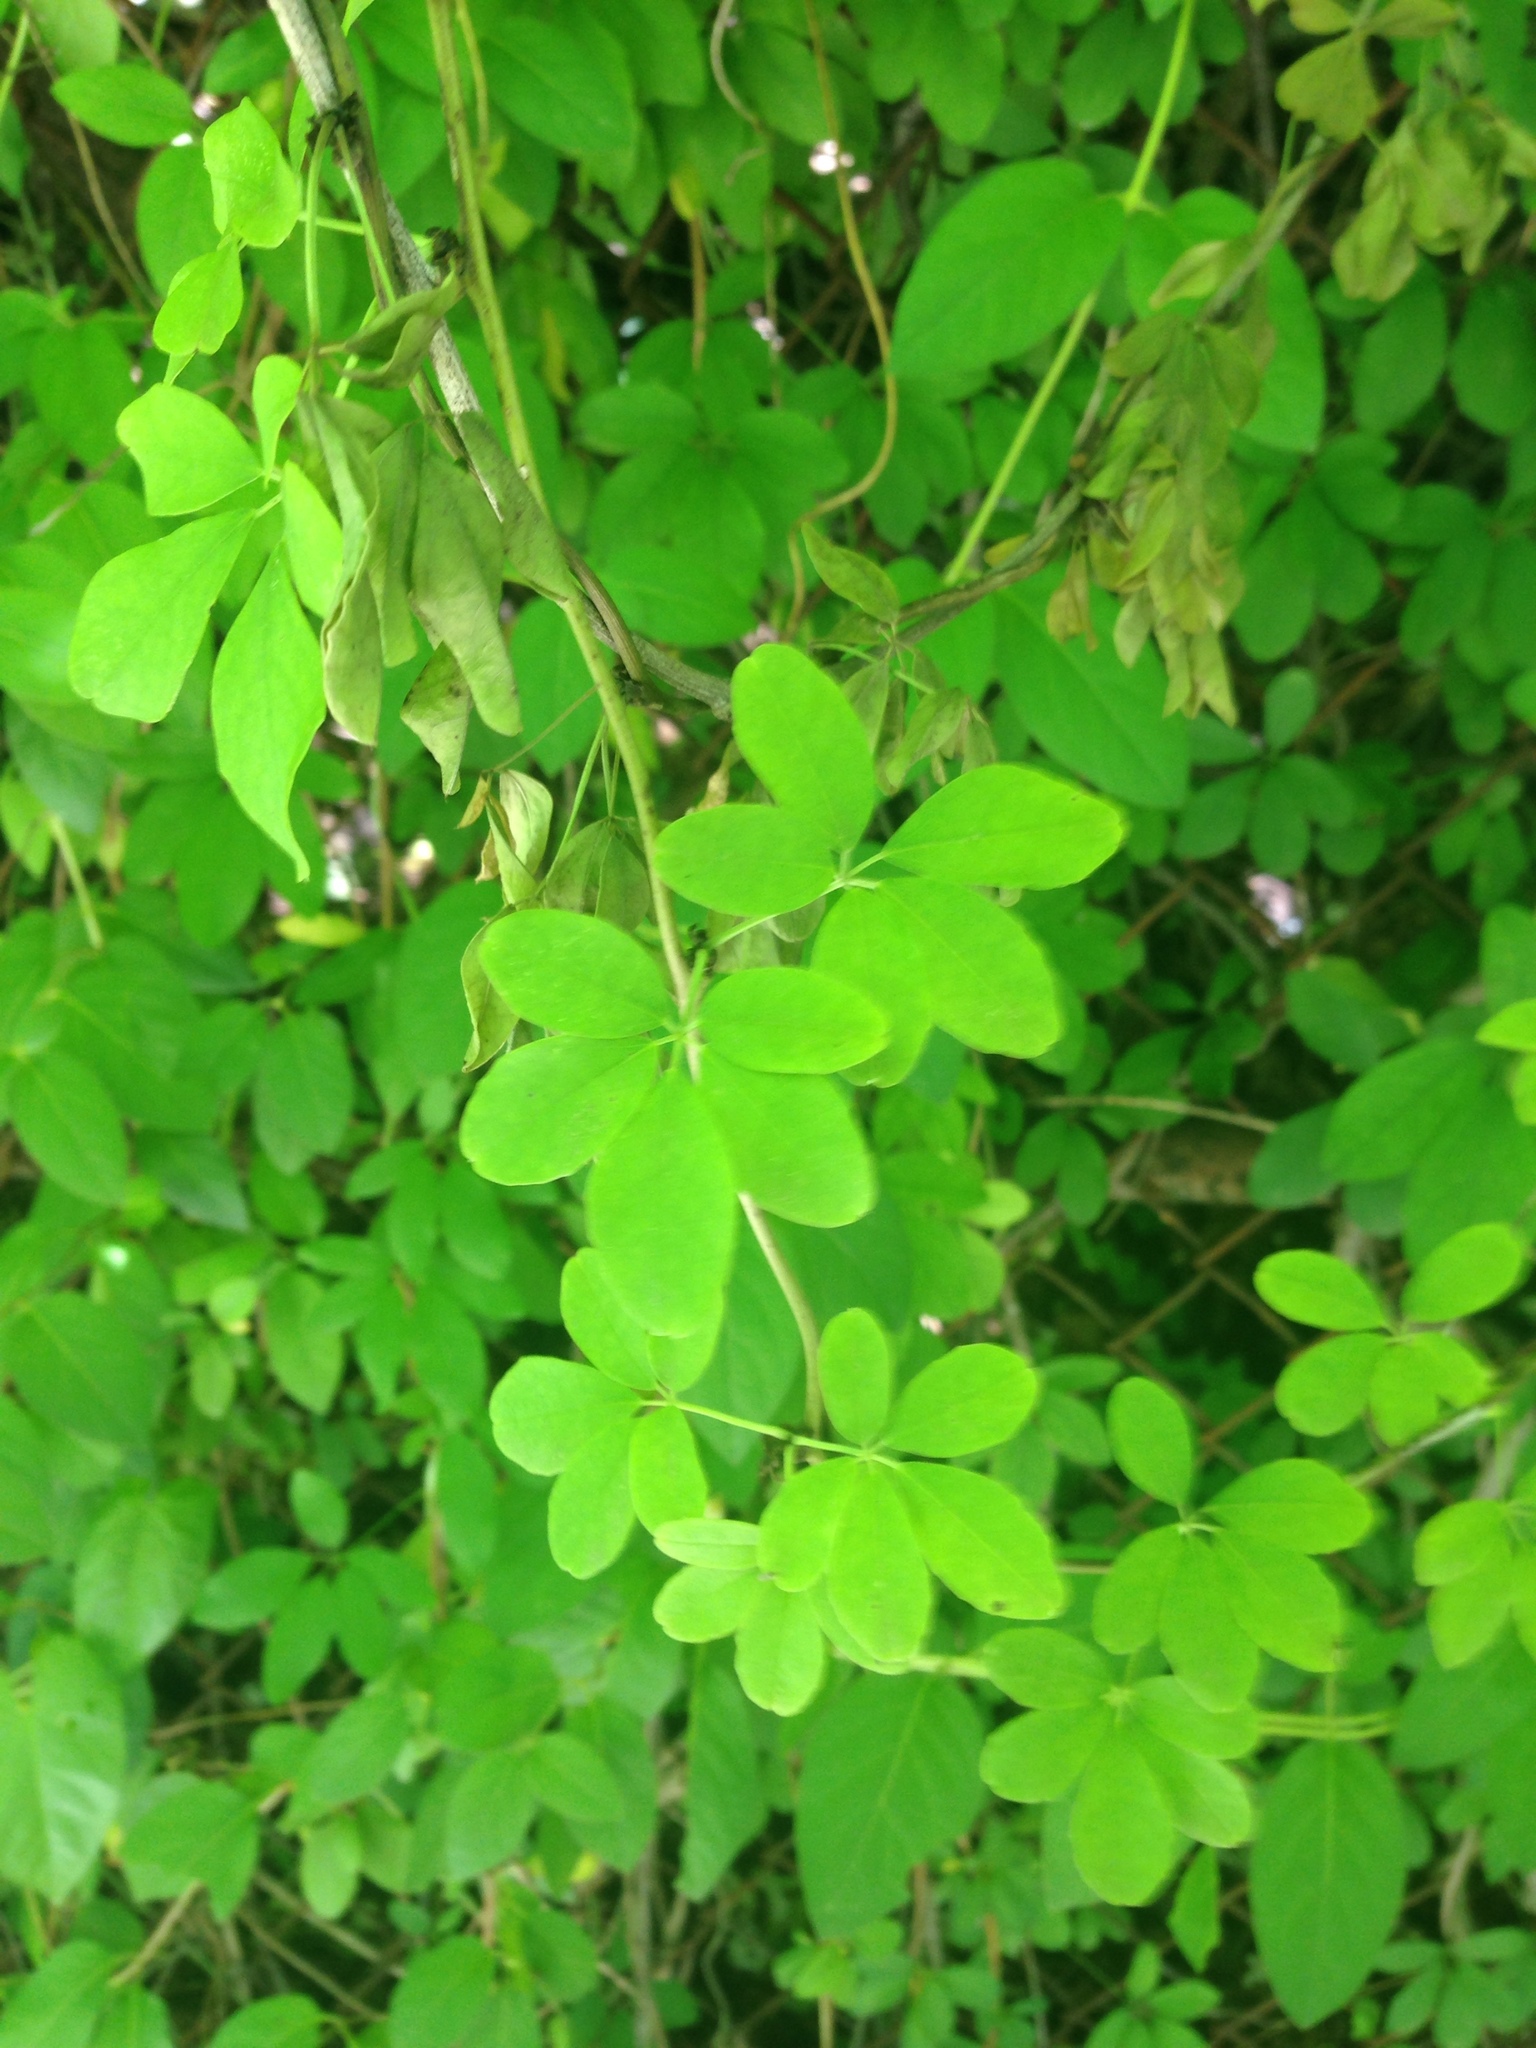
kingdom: Plantae
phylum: Tracheophyta
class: Magnoliopsida
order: Ranunculales
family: Lardizabalaceae
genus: Akebia
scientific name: Akebia quinata
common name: Five-leaf akebia
